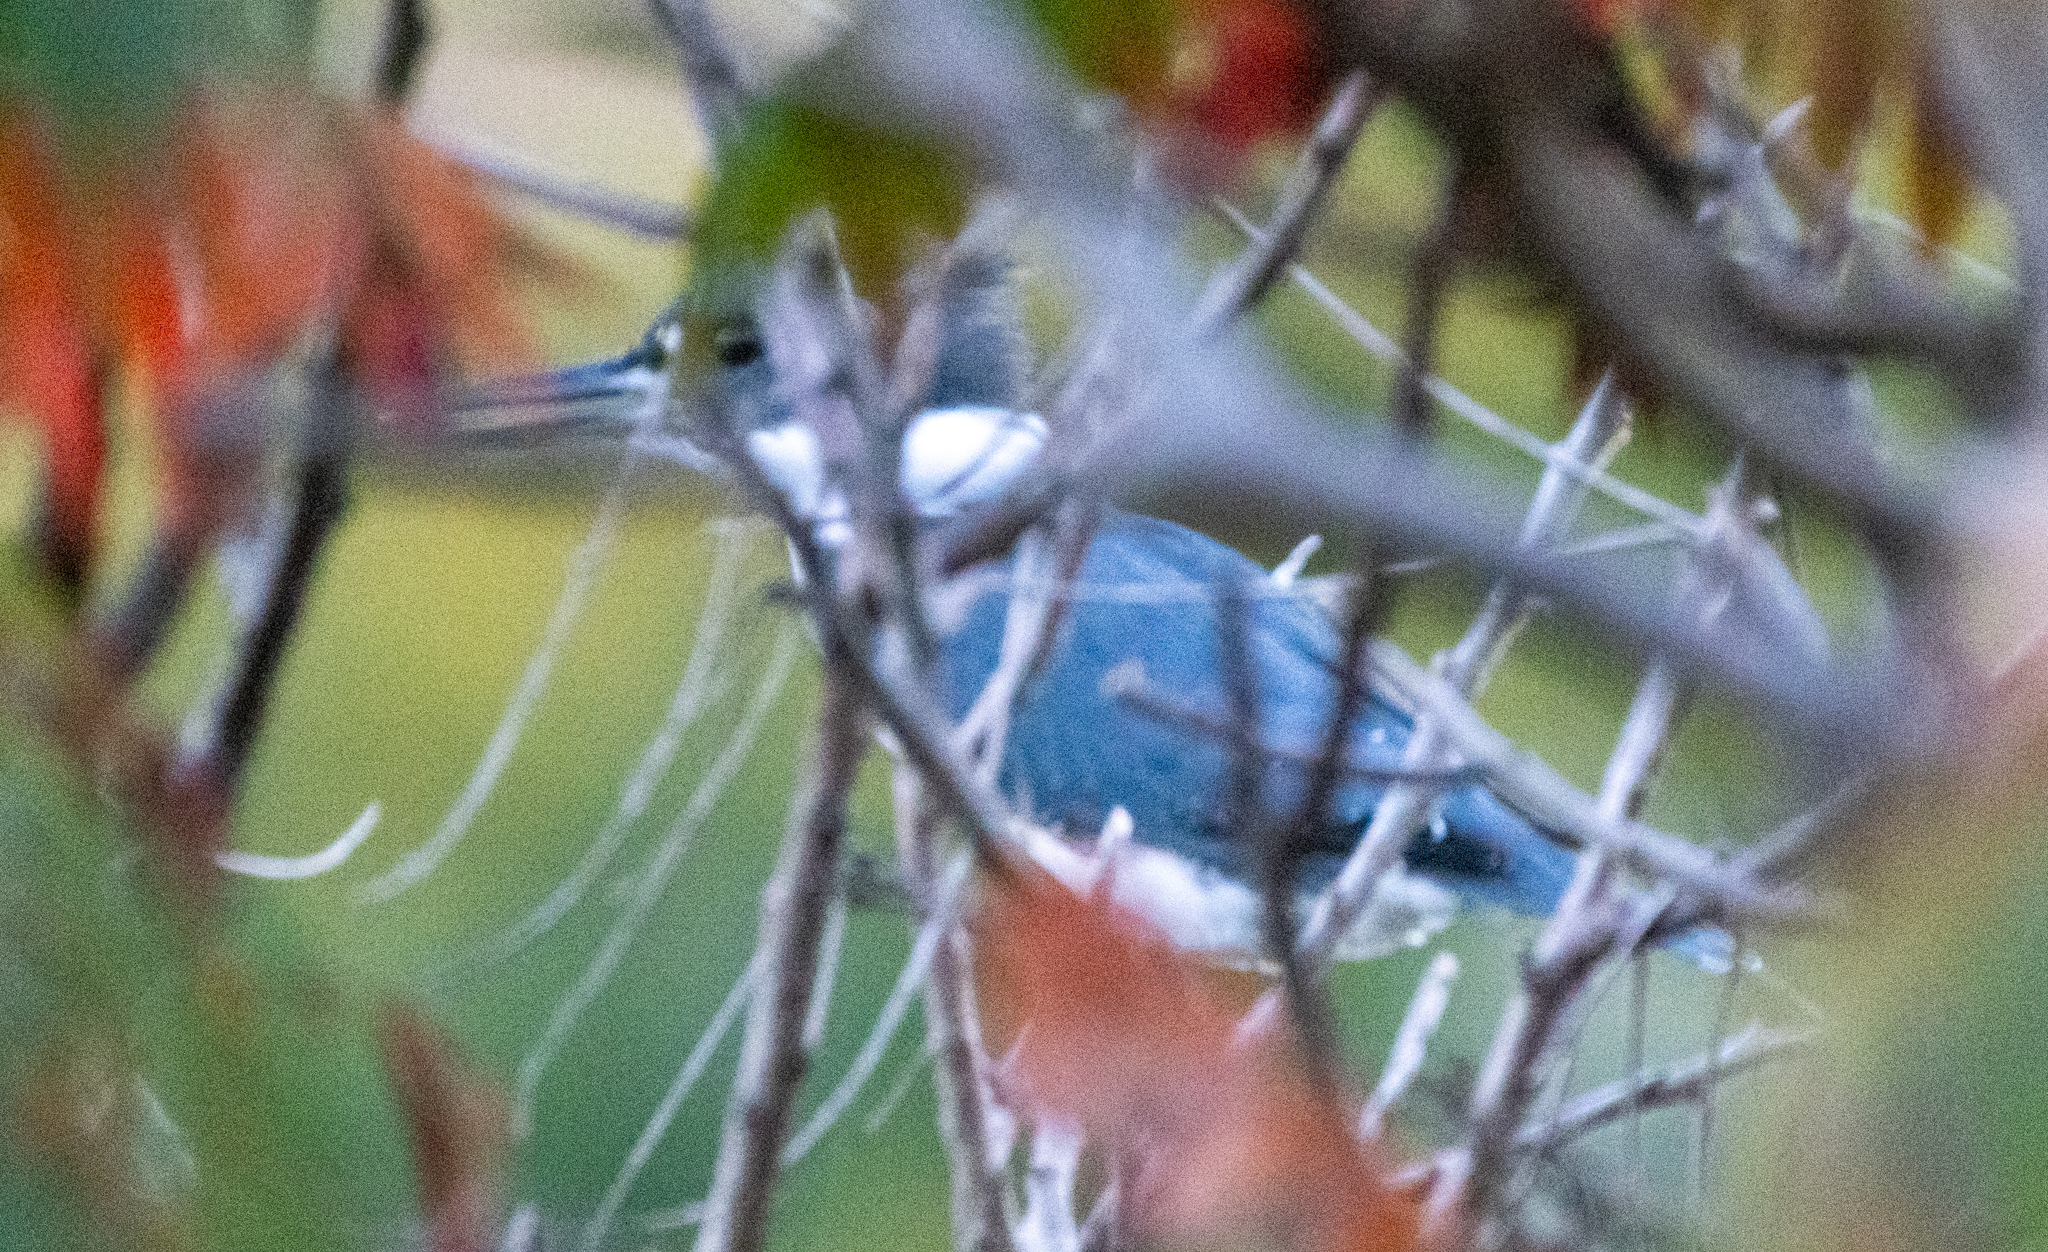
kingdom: Animalia
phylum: Chordata
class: Aves
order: Coraciiformes
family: Alcedinidae
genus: Megaceryle
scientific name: Megaceryle alcyon
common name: Belted kingfisher
